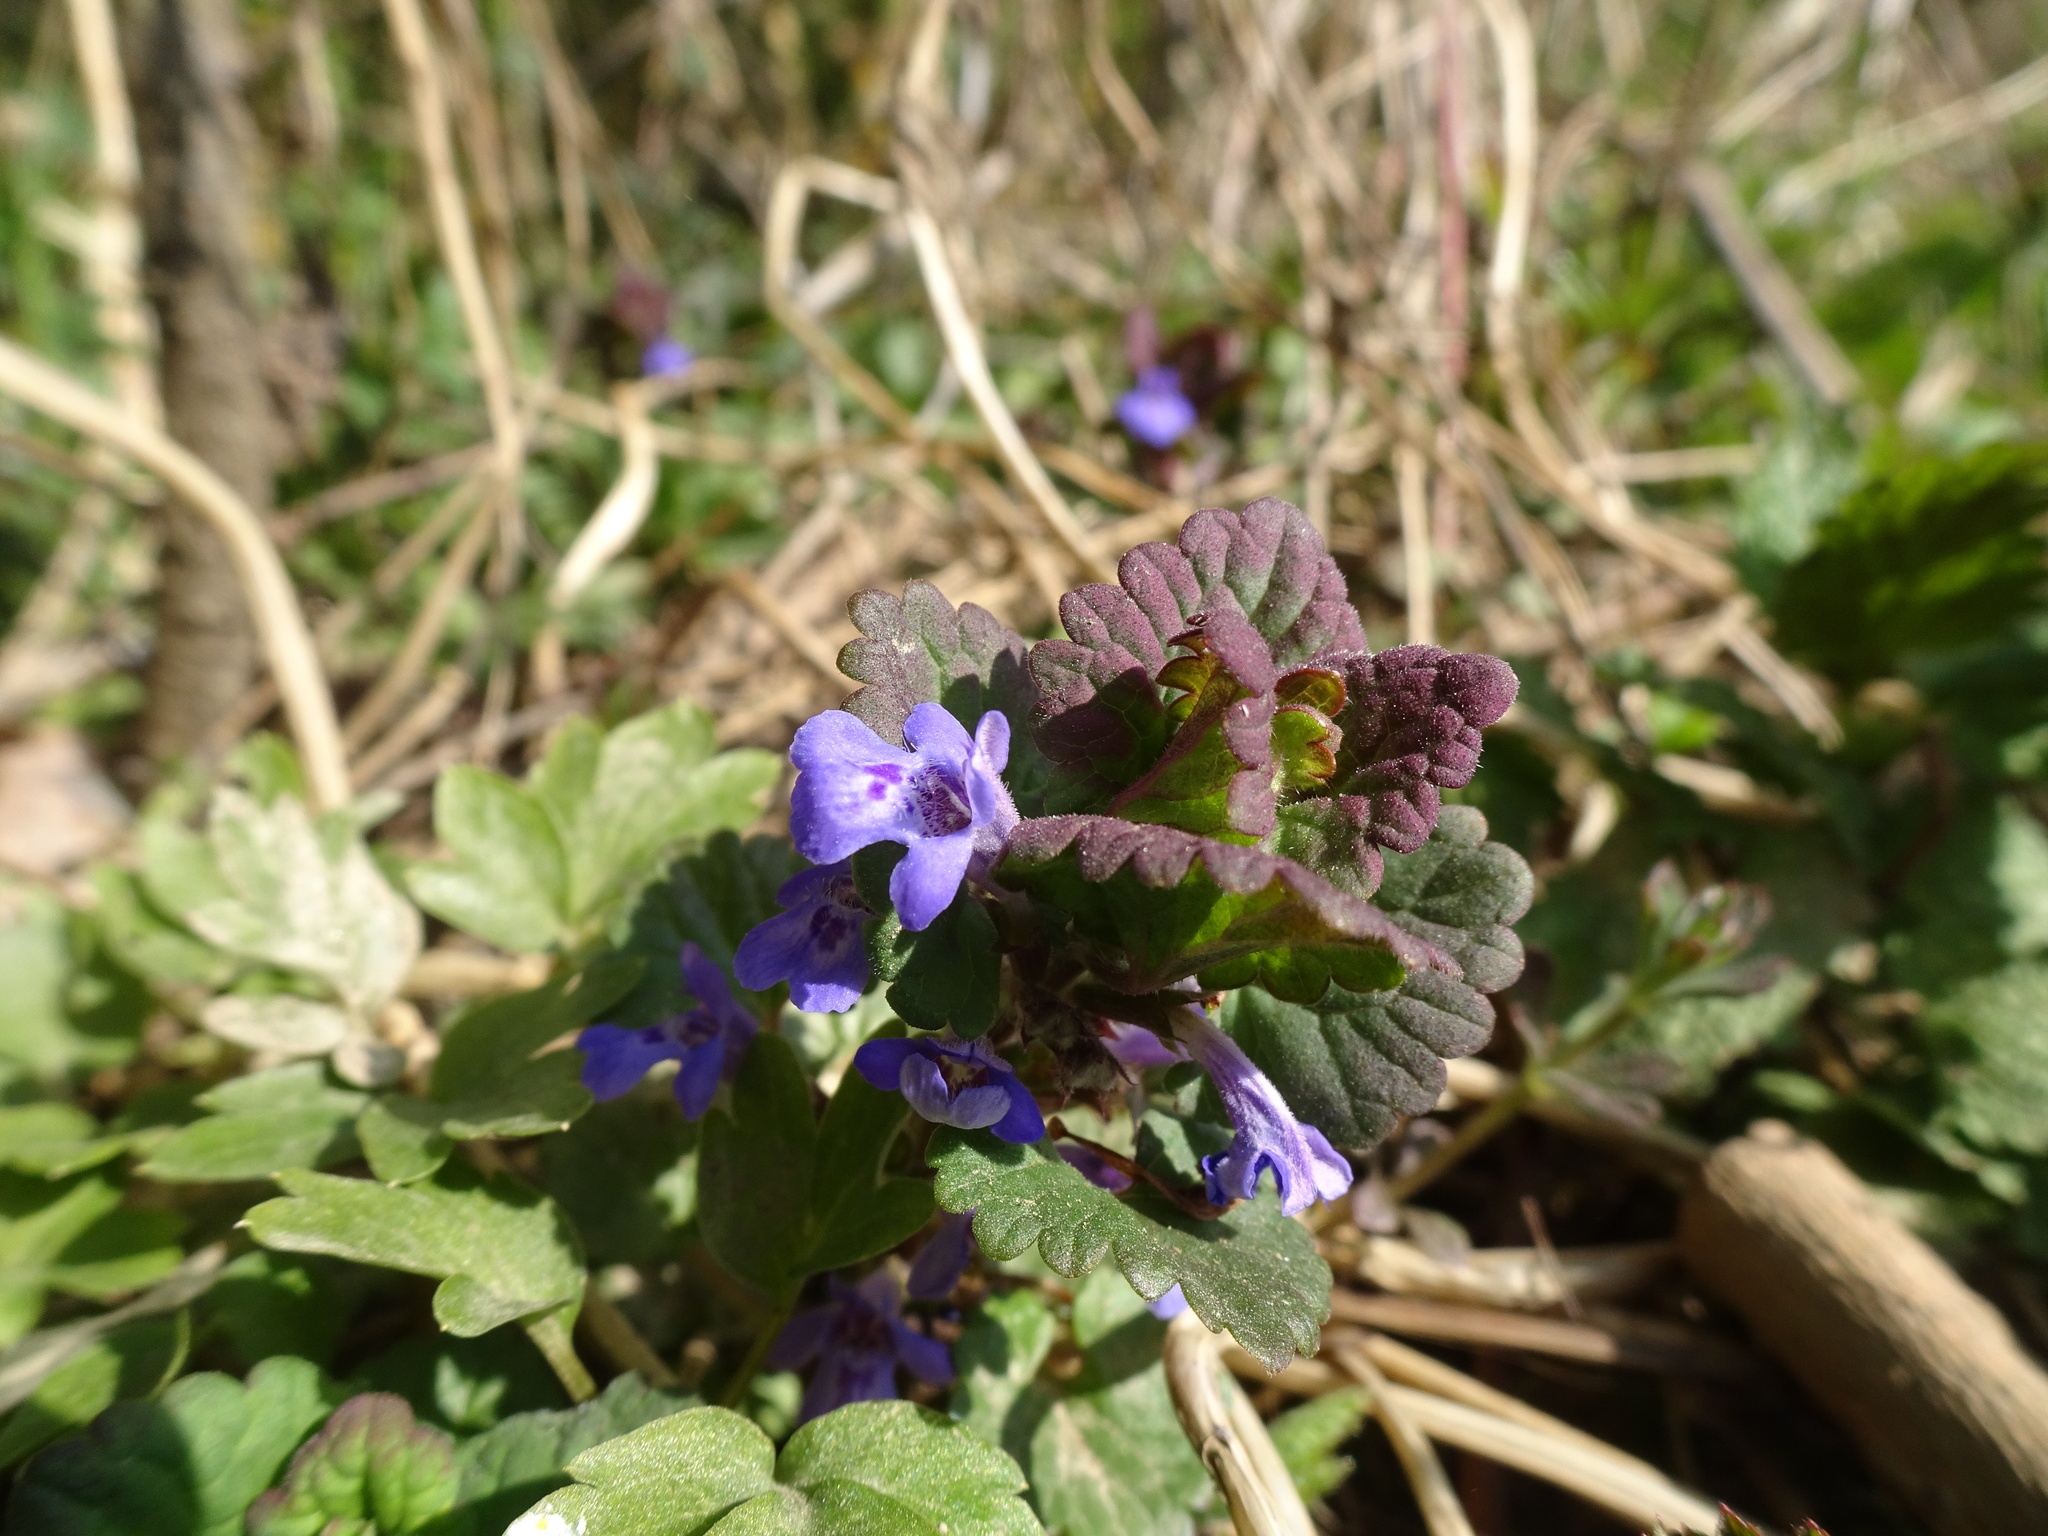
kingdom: Plantae
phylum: Tracheophyta
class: Magnoliopsida
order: Lamiales
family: Lamiaceae
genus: Glechoma
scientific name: Glechoma hederacea
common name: Ground ivy
